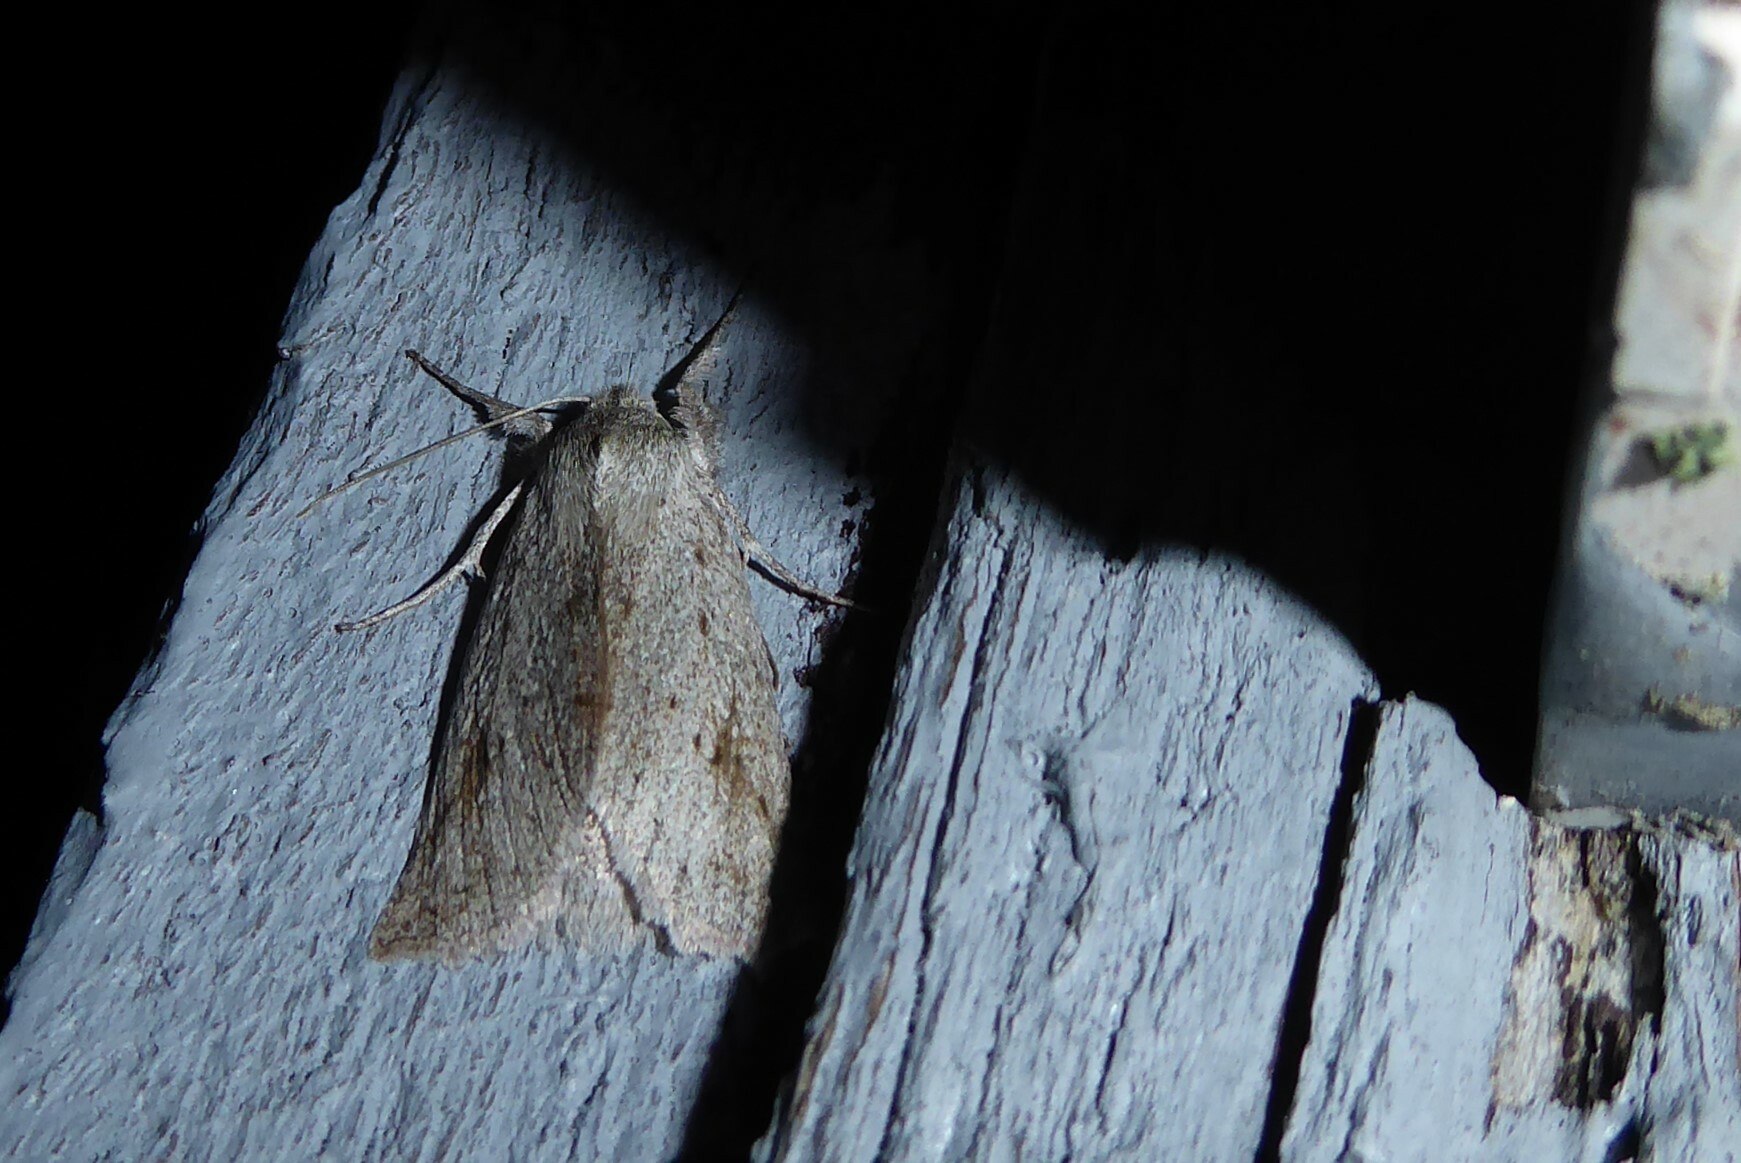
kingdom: Animalia
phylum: Arthropoda
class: Insecta
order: Lepidoptera
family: Geometridae
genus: Declana
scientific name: Declana leptomera
